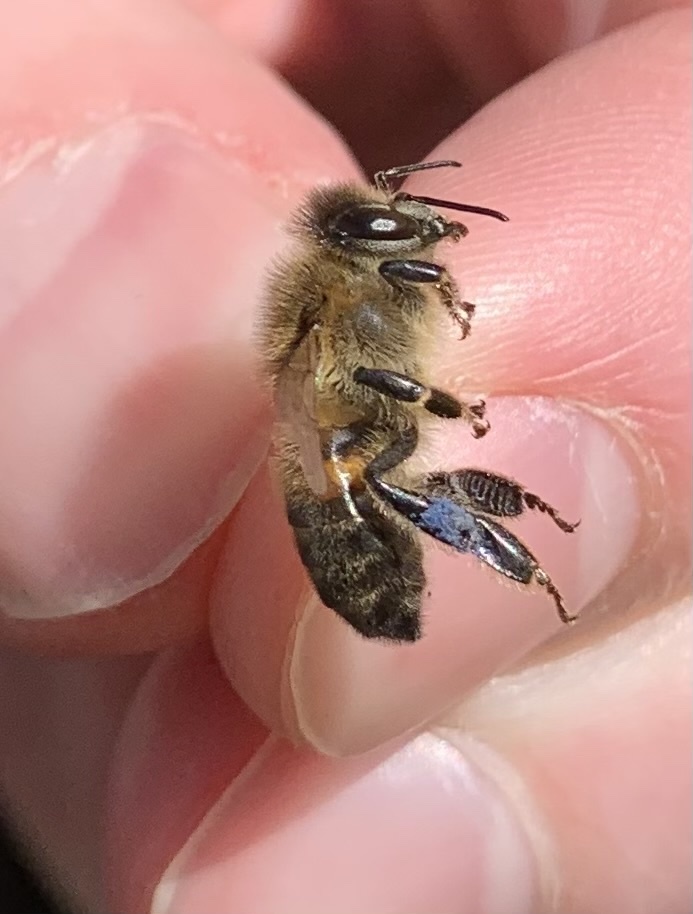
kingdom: Animalia
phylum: Arthropoda
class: Insecta
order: Hymenoptera
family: Apidae
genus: Apis
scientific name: Apis mellifera
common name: Honey bee
